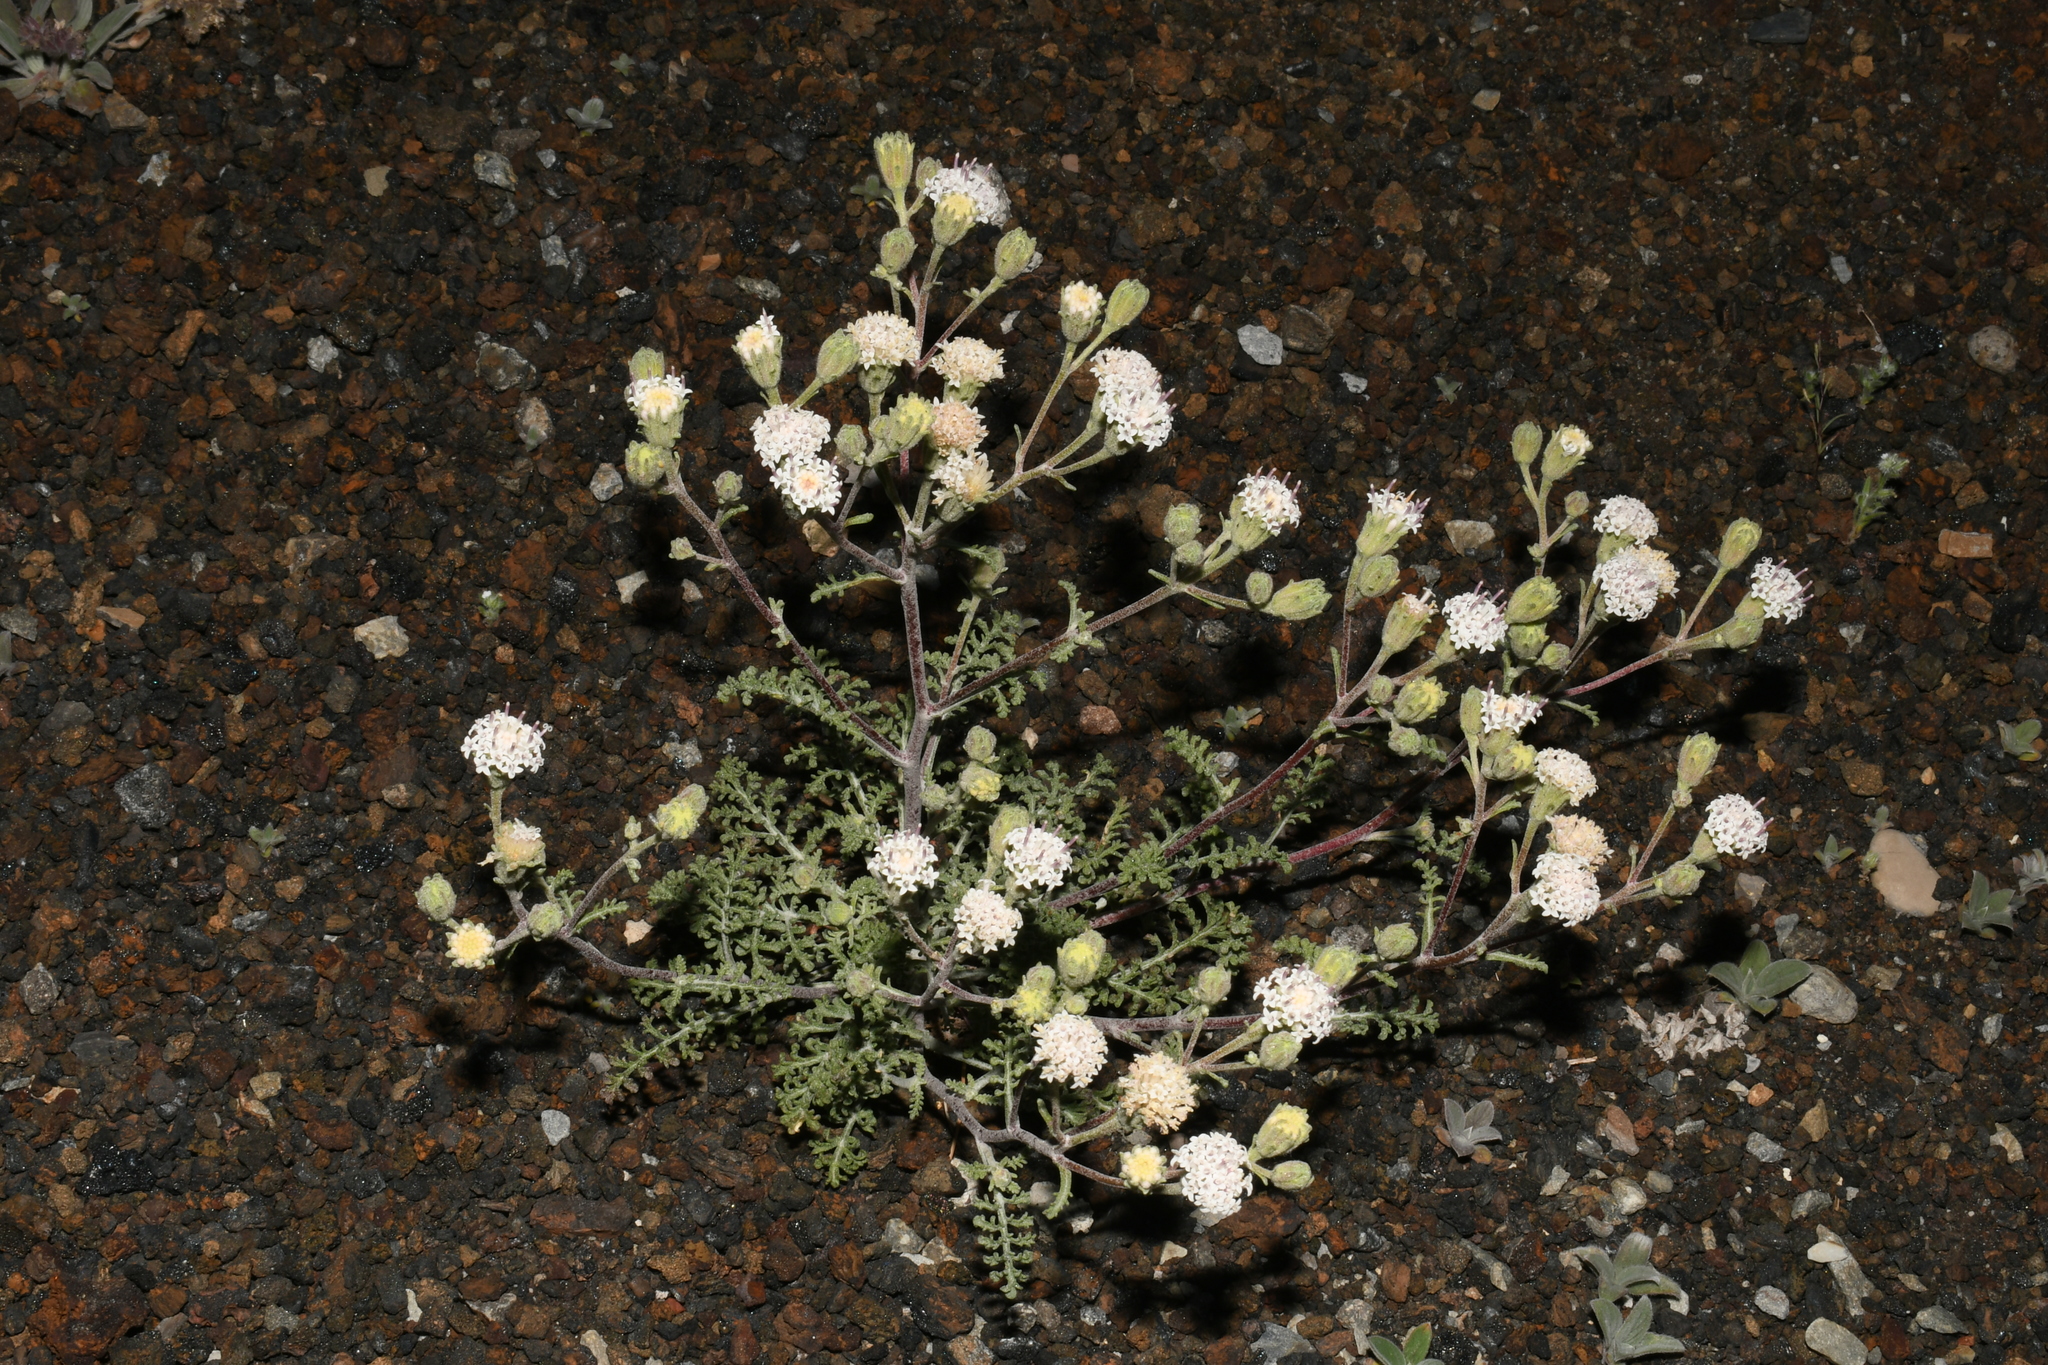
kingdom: Plantae
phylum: Tracheophyta
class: Magnoliopsida
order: Asterales
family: Asteraceae
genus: Chaenactis
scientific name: Chaenactis douglasii
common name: Hoary pincushion
